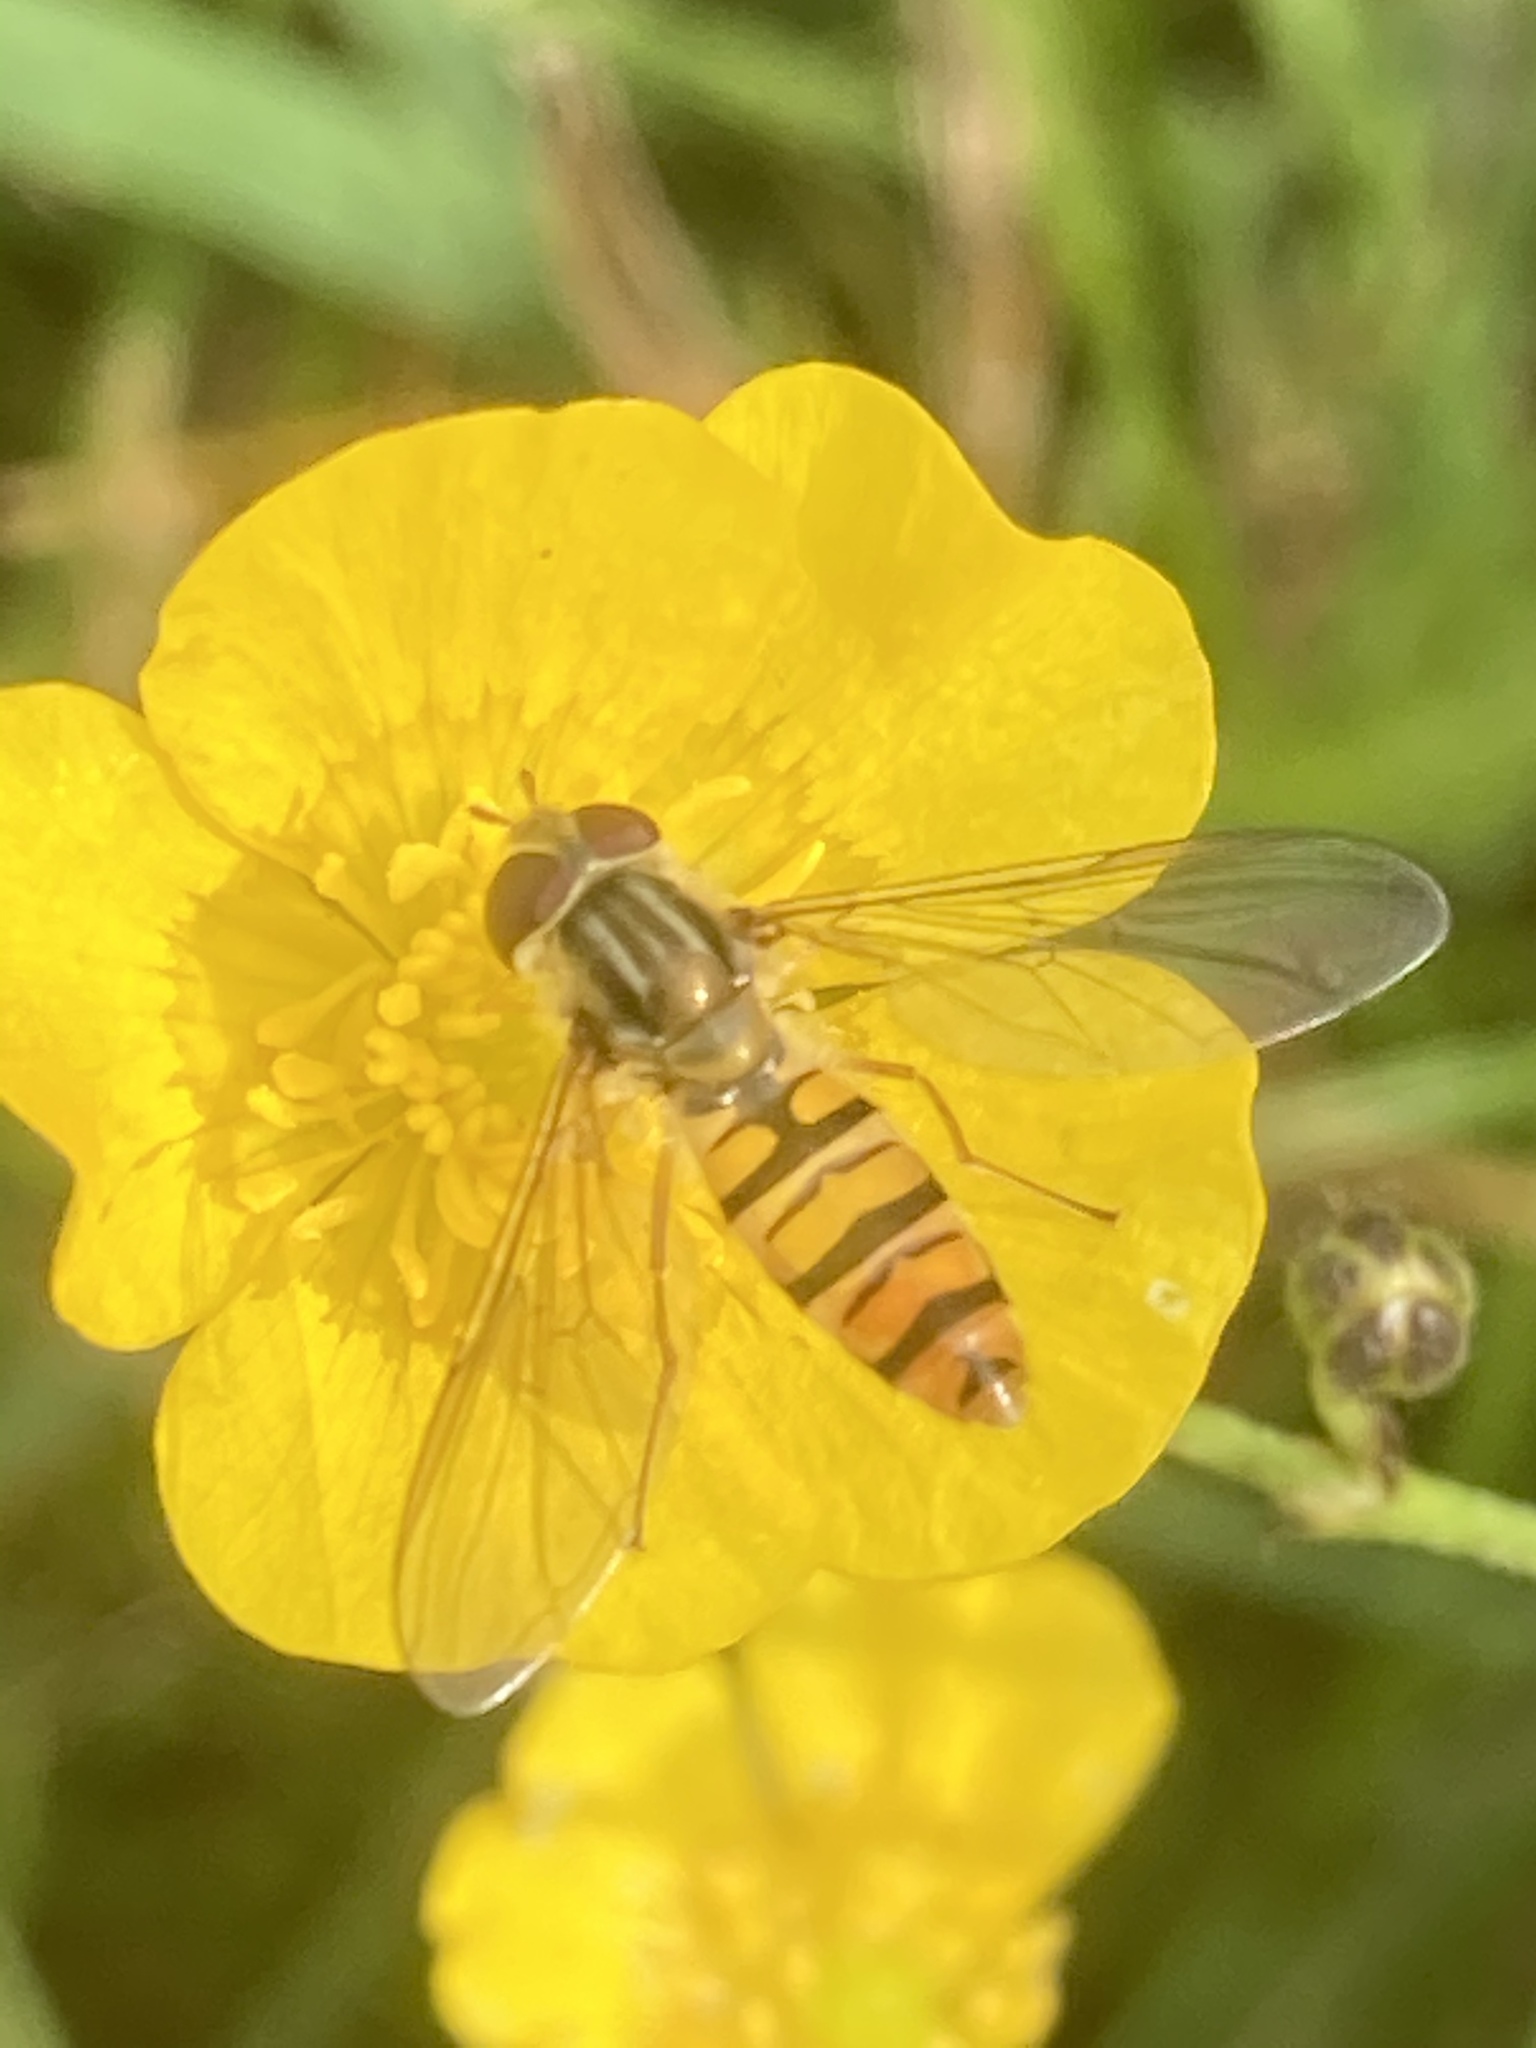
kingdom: Animalia
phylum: Arthropoda
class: Insecta
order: Diptera
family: Syrphidae
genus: Episyrphus
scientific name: Episyrphus balteatus
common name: Marmalade hoverfly
